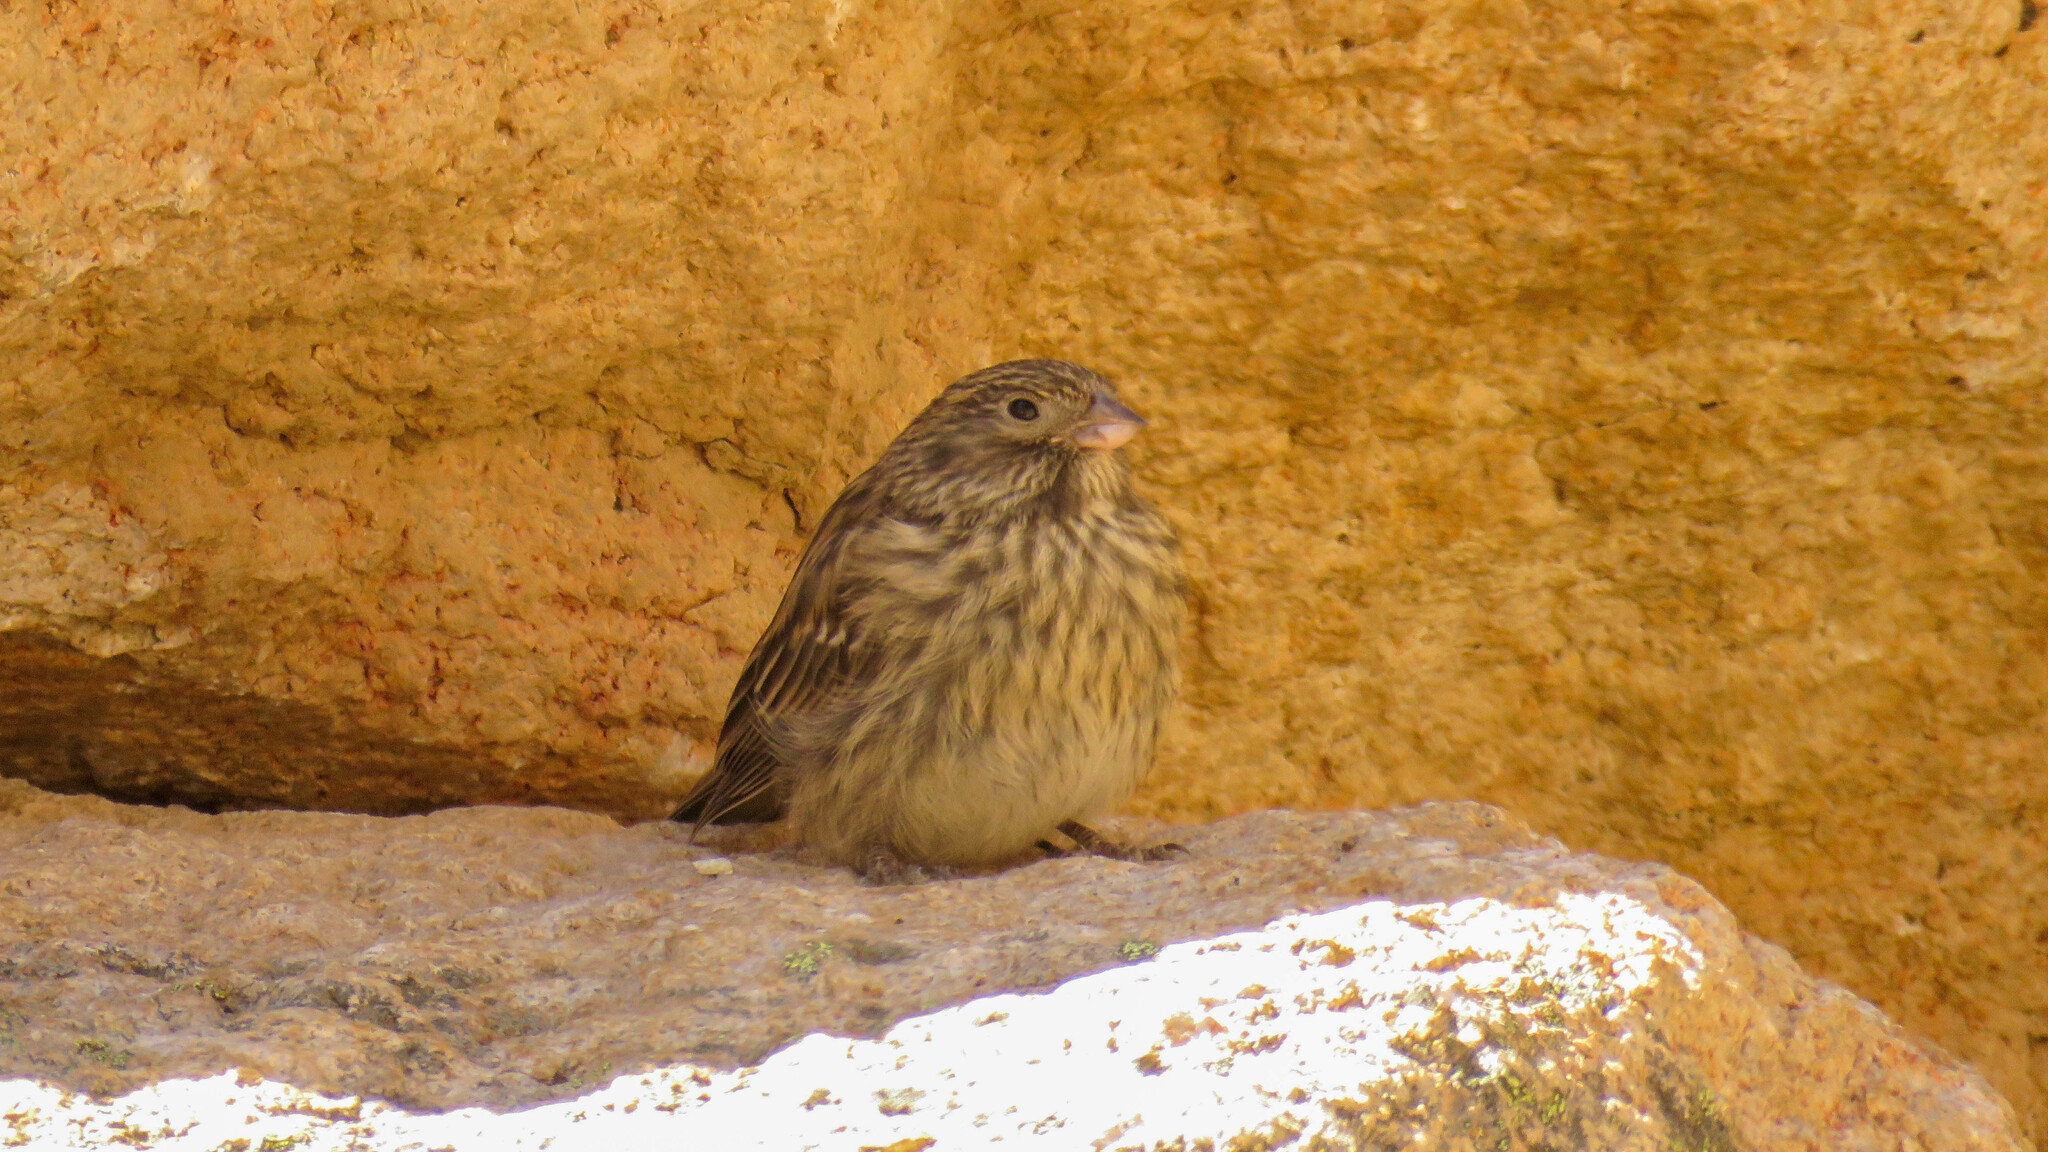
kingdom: Animalia
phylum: Chordata
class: Aves
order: Passeriformes
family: Thraupidae
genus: Melanodera
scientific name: Melanodera xanthogramma
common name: Yellow-bridled finch
